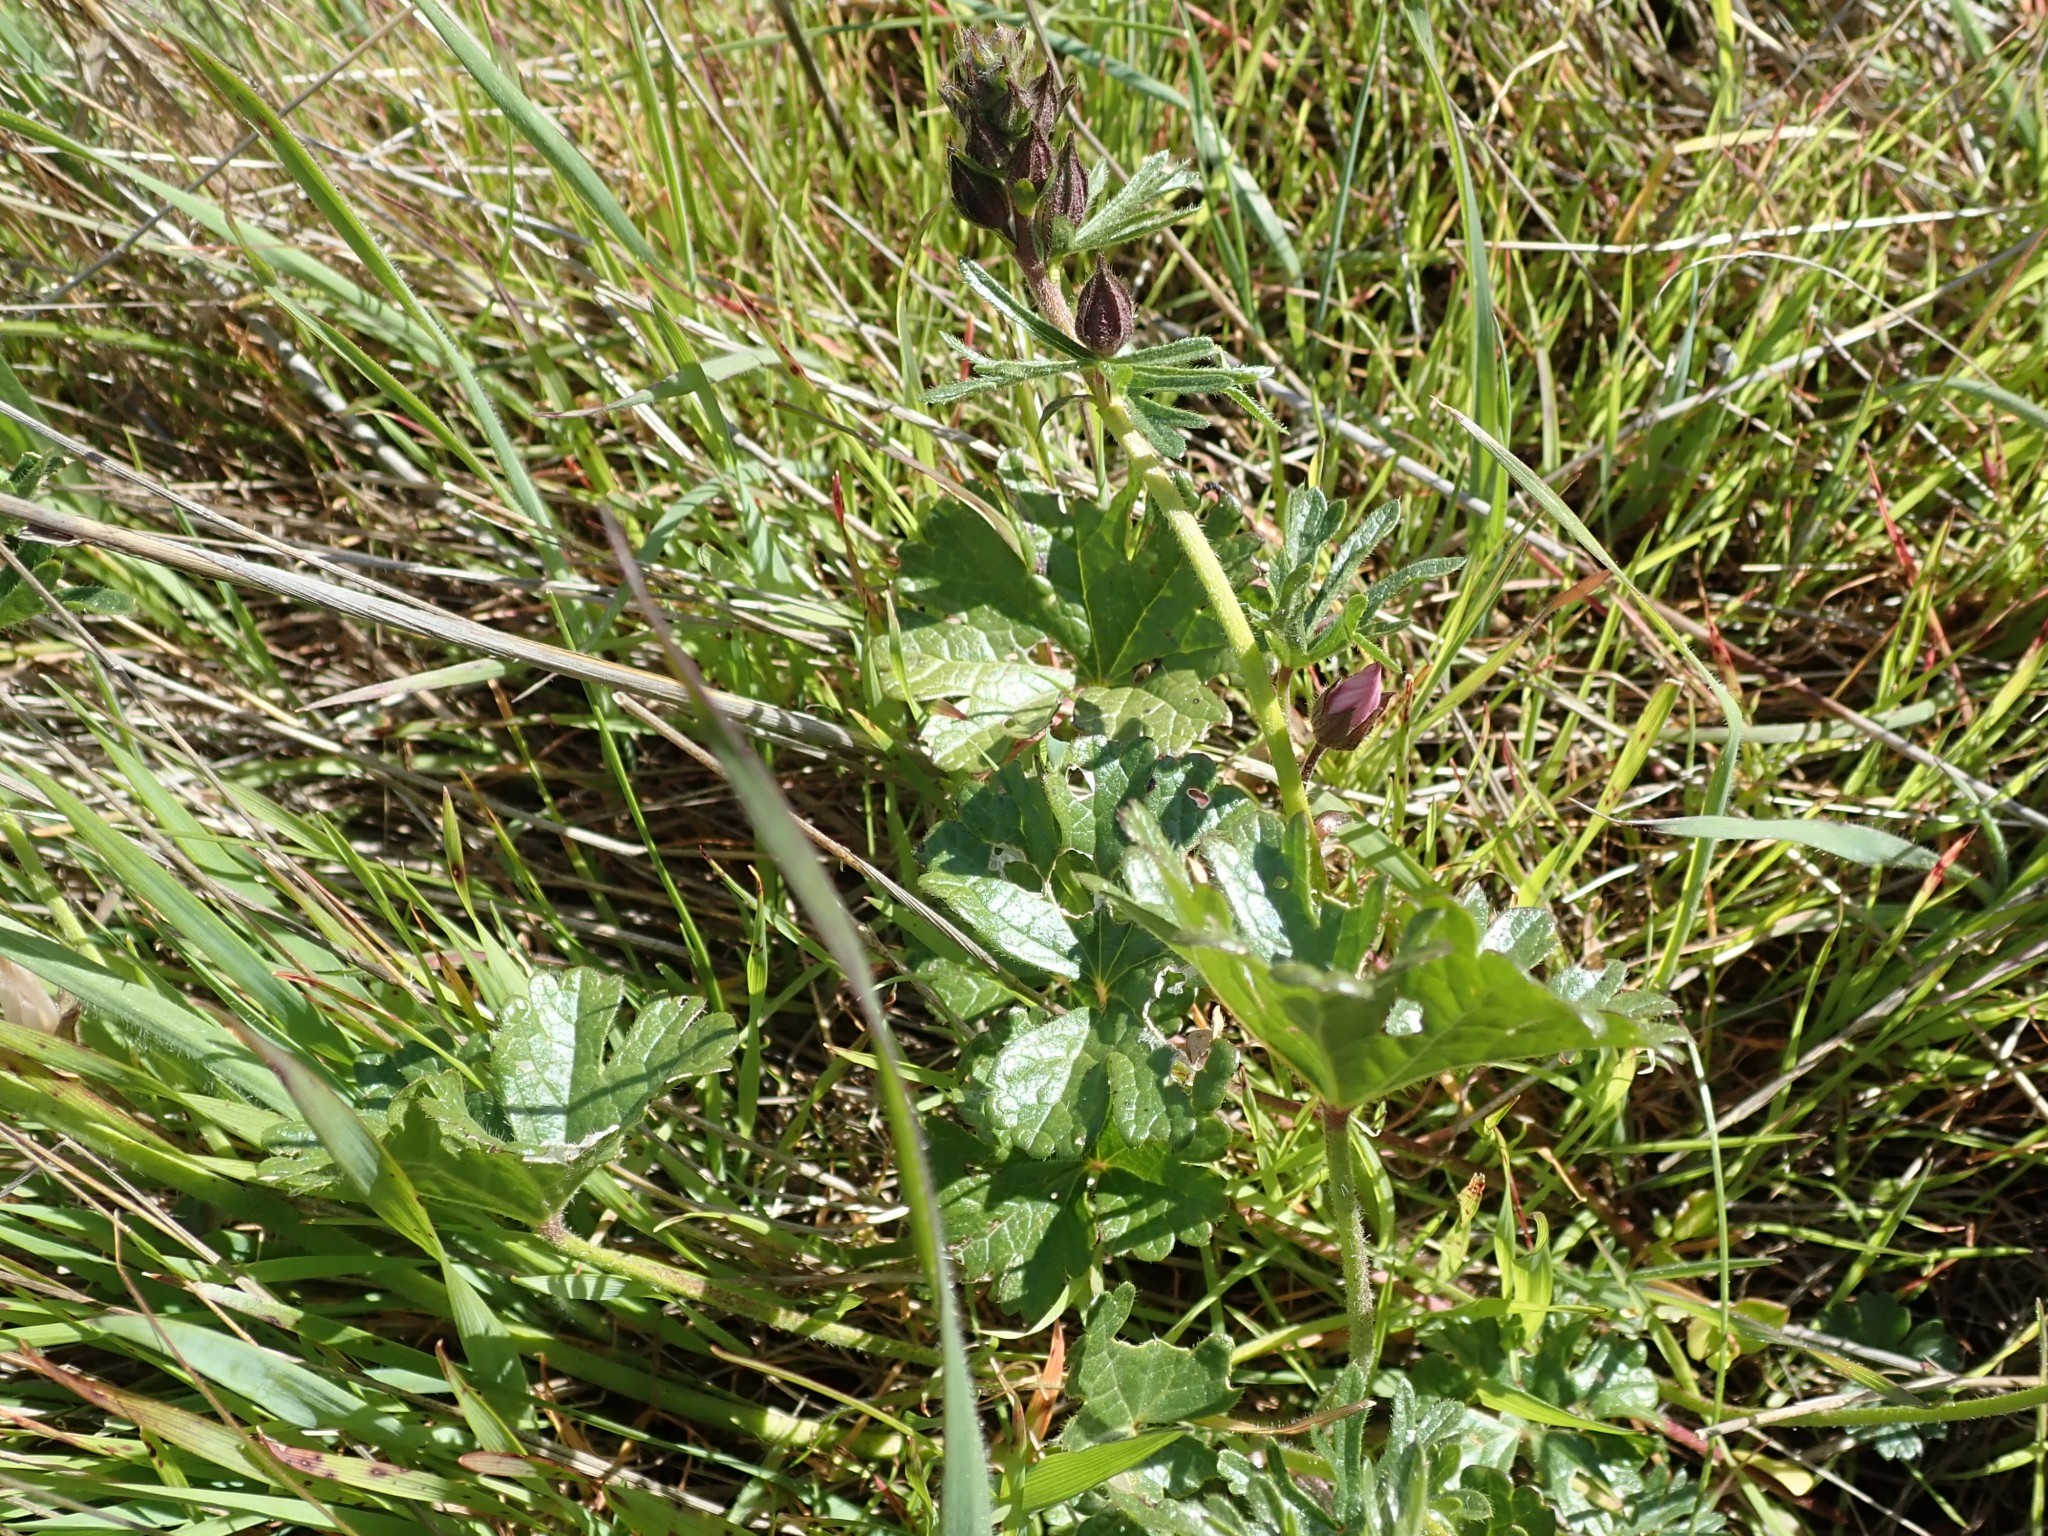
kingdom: Plantae
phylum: Tracheophyta
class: Magnoliopsida
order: Malvales
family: Malvaceae
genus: Sidalcea
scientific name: Sidalcea malviflora
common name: Greek mallow
